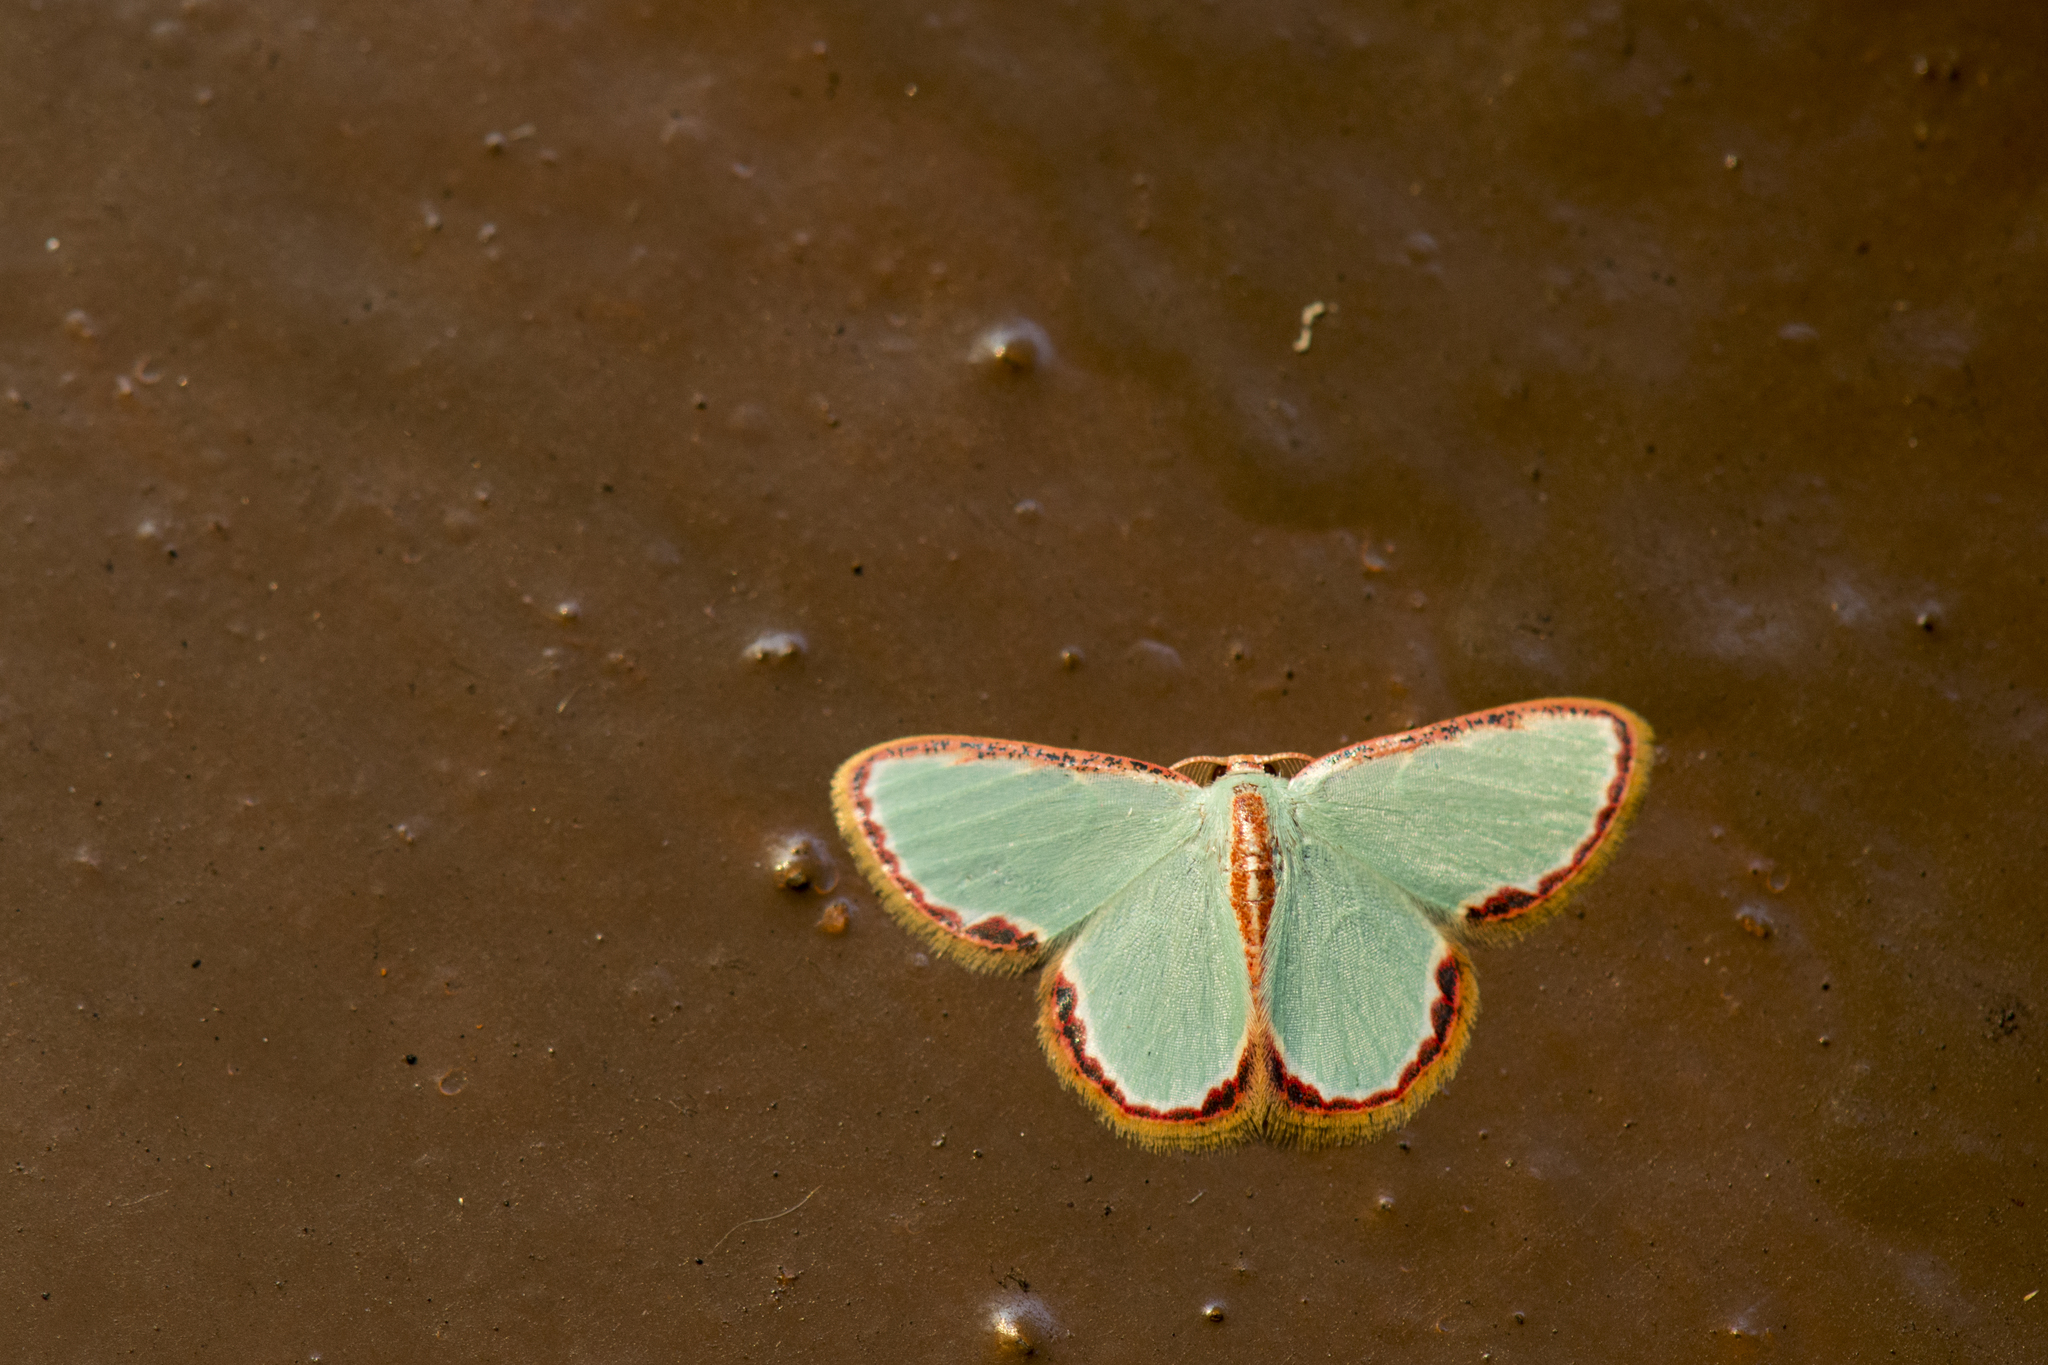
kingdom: Animalia
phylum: Arthropoda
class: Insecta
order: Lepidoptera
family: Geometridae
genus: Comostola
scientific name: Comostola pyrrhogona
